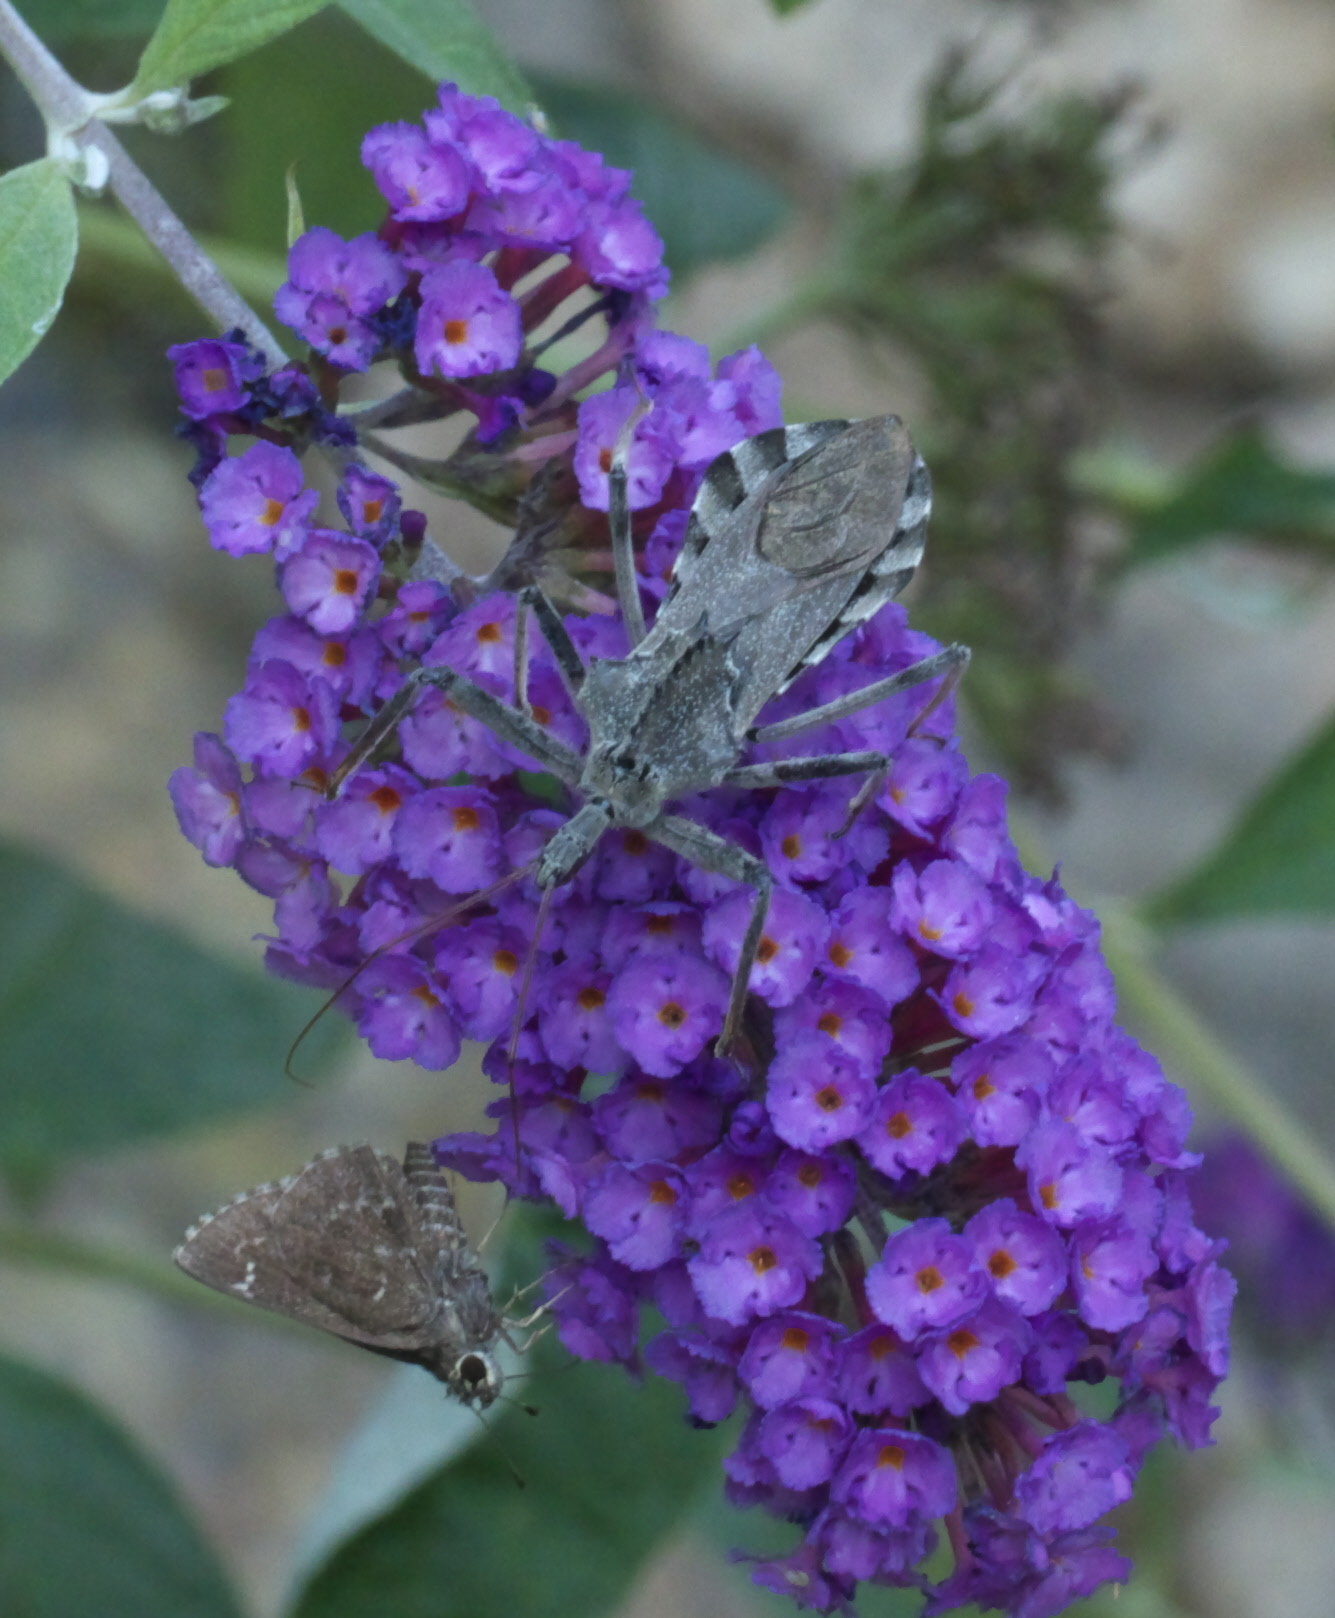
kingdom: Animalia
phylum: Arthropoda
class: Insecta
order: Lepidoptera
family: Hesperiidae
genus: Mastor
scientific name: Mastor celia
